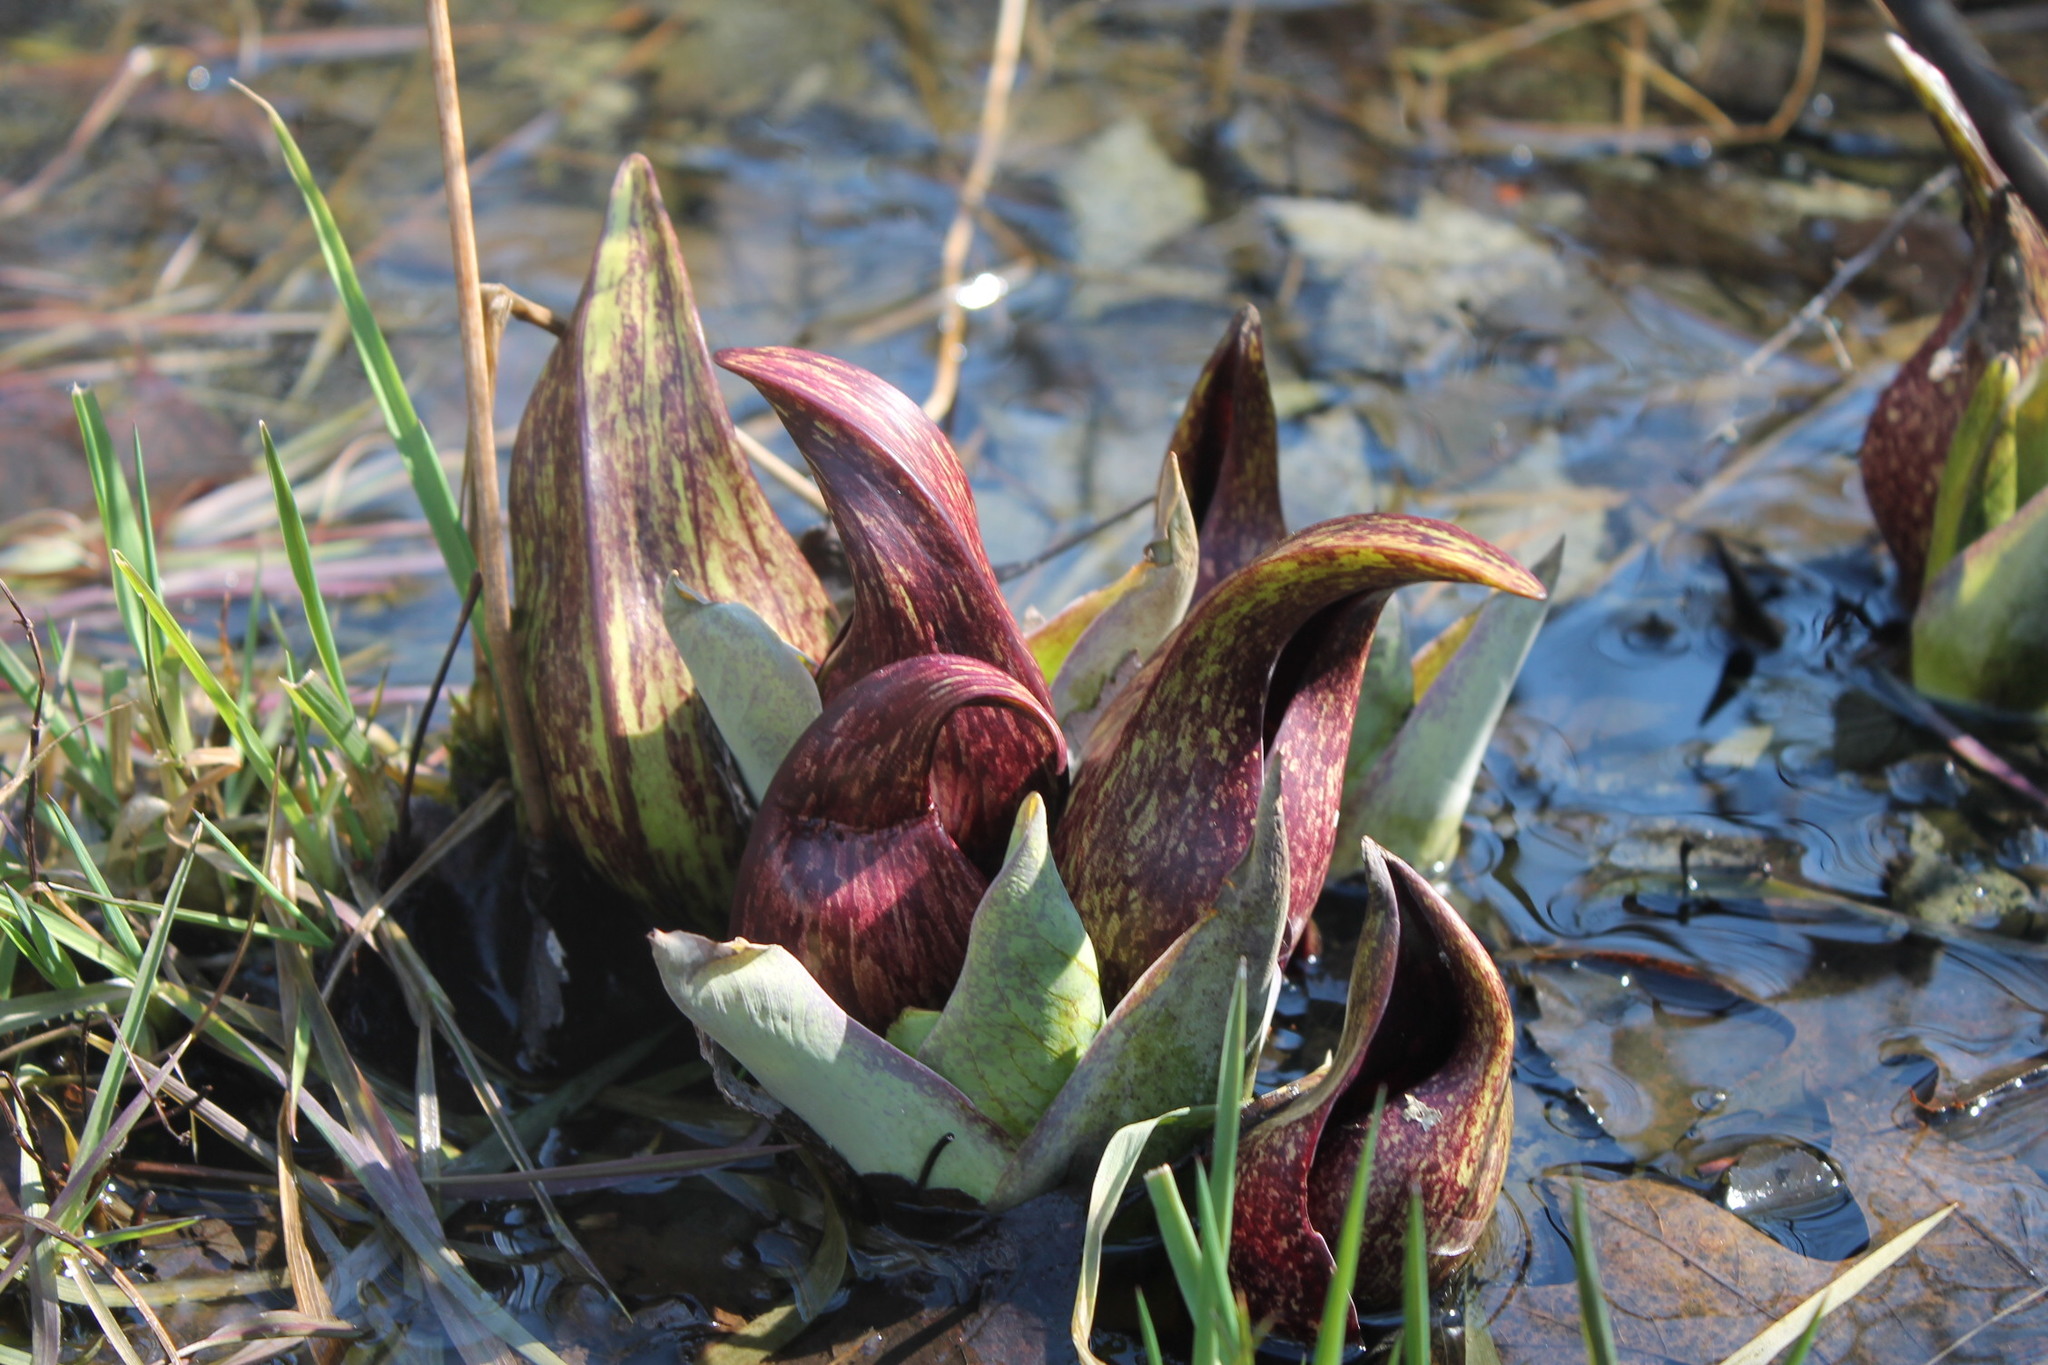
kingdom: Plantae
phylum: Tracheophyta
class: Liliopsida
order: Alismatales
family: Araceae
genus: Symplocarpus
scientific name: Symplocarpus foetidus
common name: Eastern skunk cabbage
